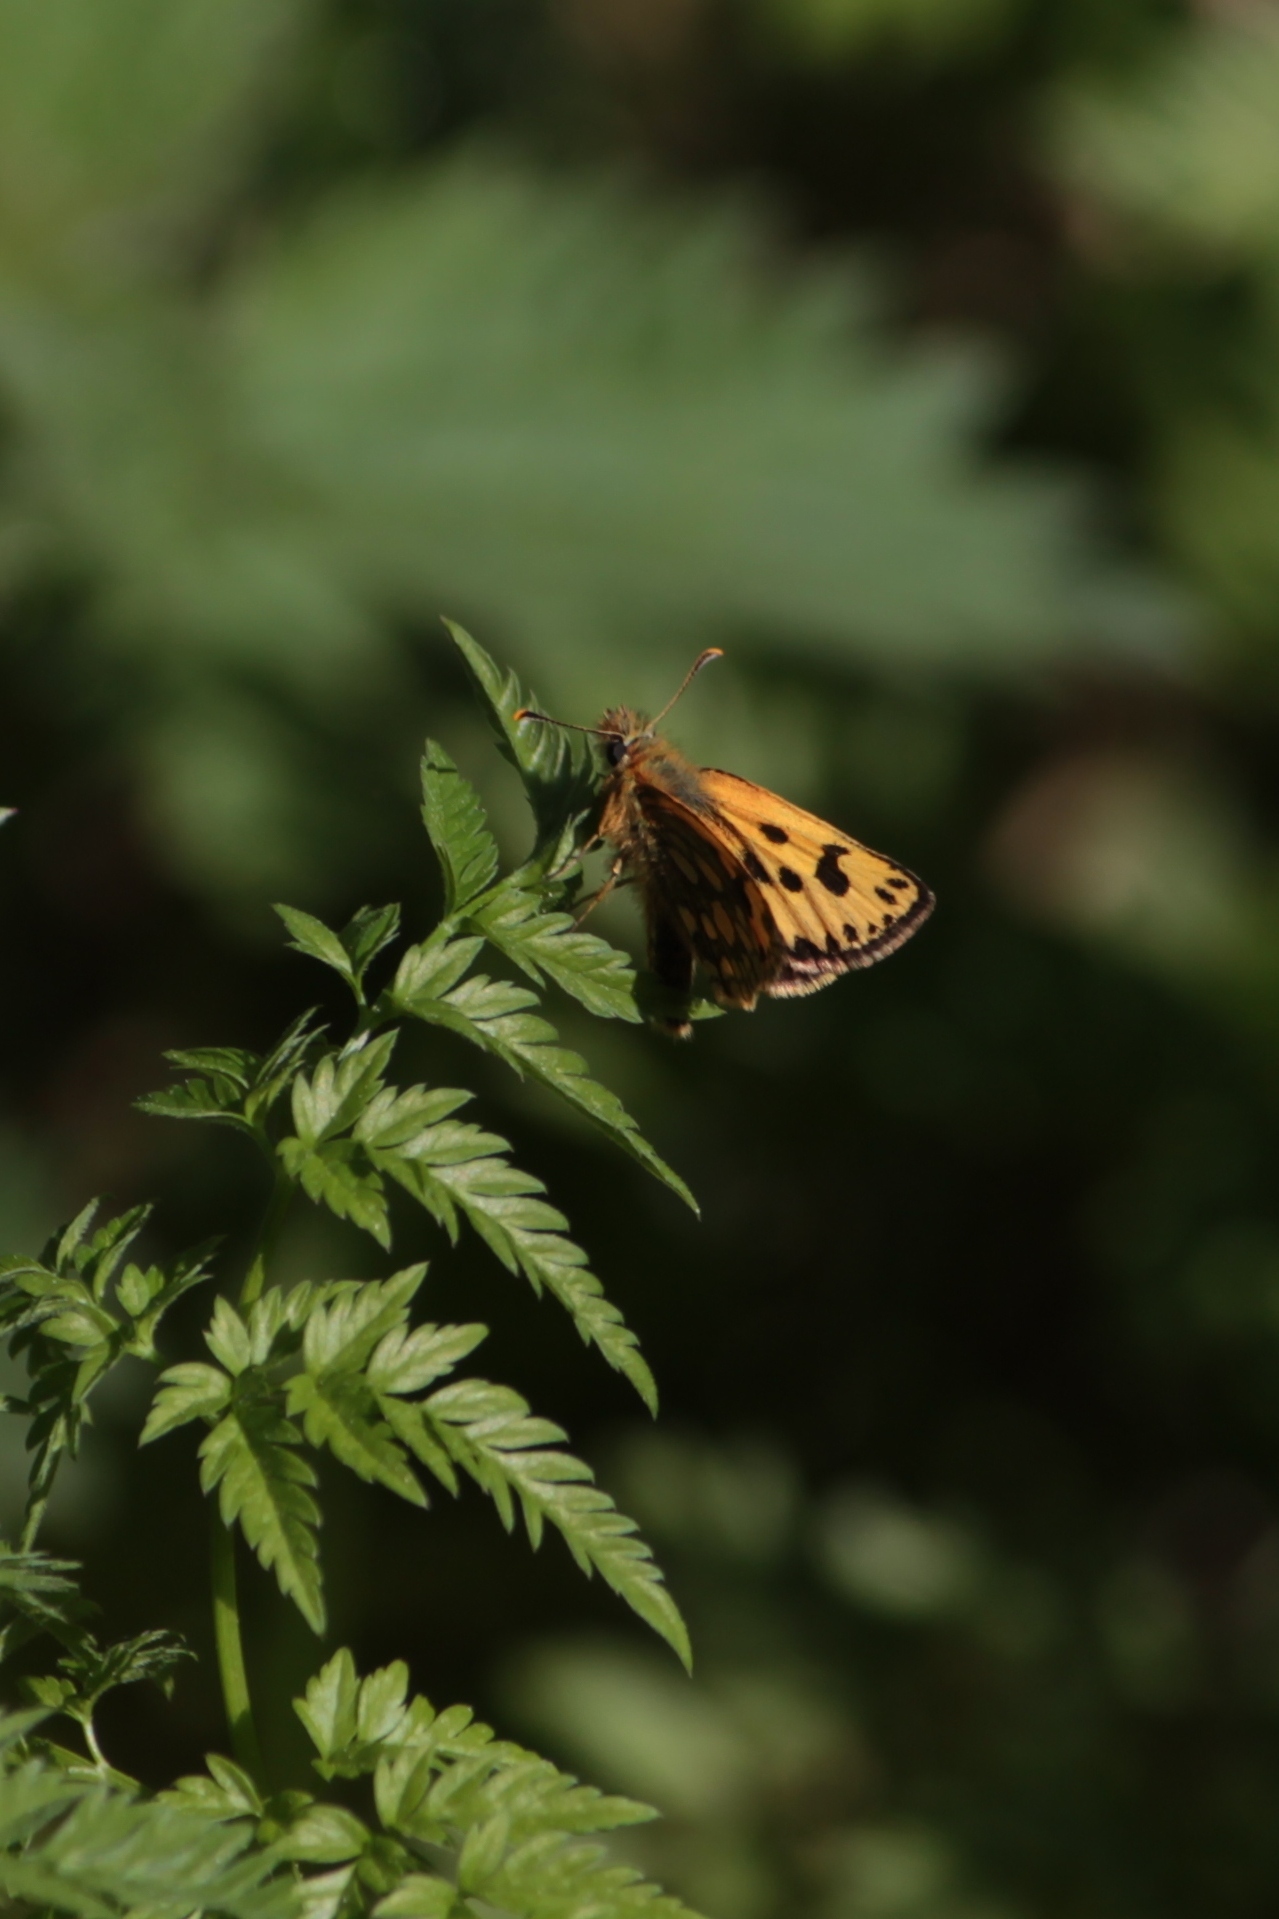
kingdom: Animalia
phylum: Arthropoda
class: Insecta
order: Lepidoptera
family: Hesperiidae
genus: Carterocephalus
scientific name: Carterocephalus silvicola
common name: Northern chequered skipper
